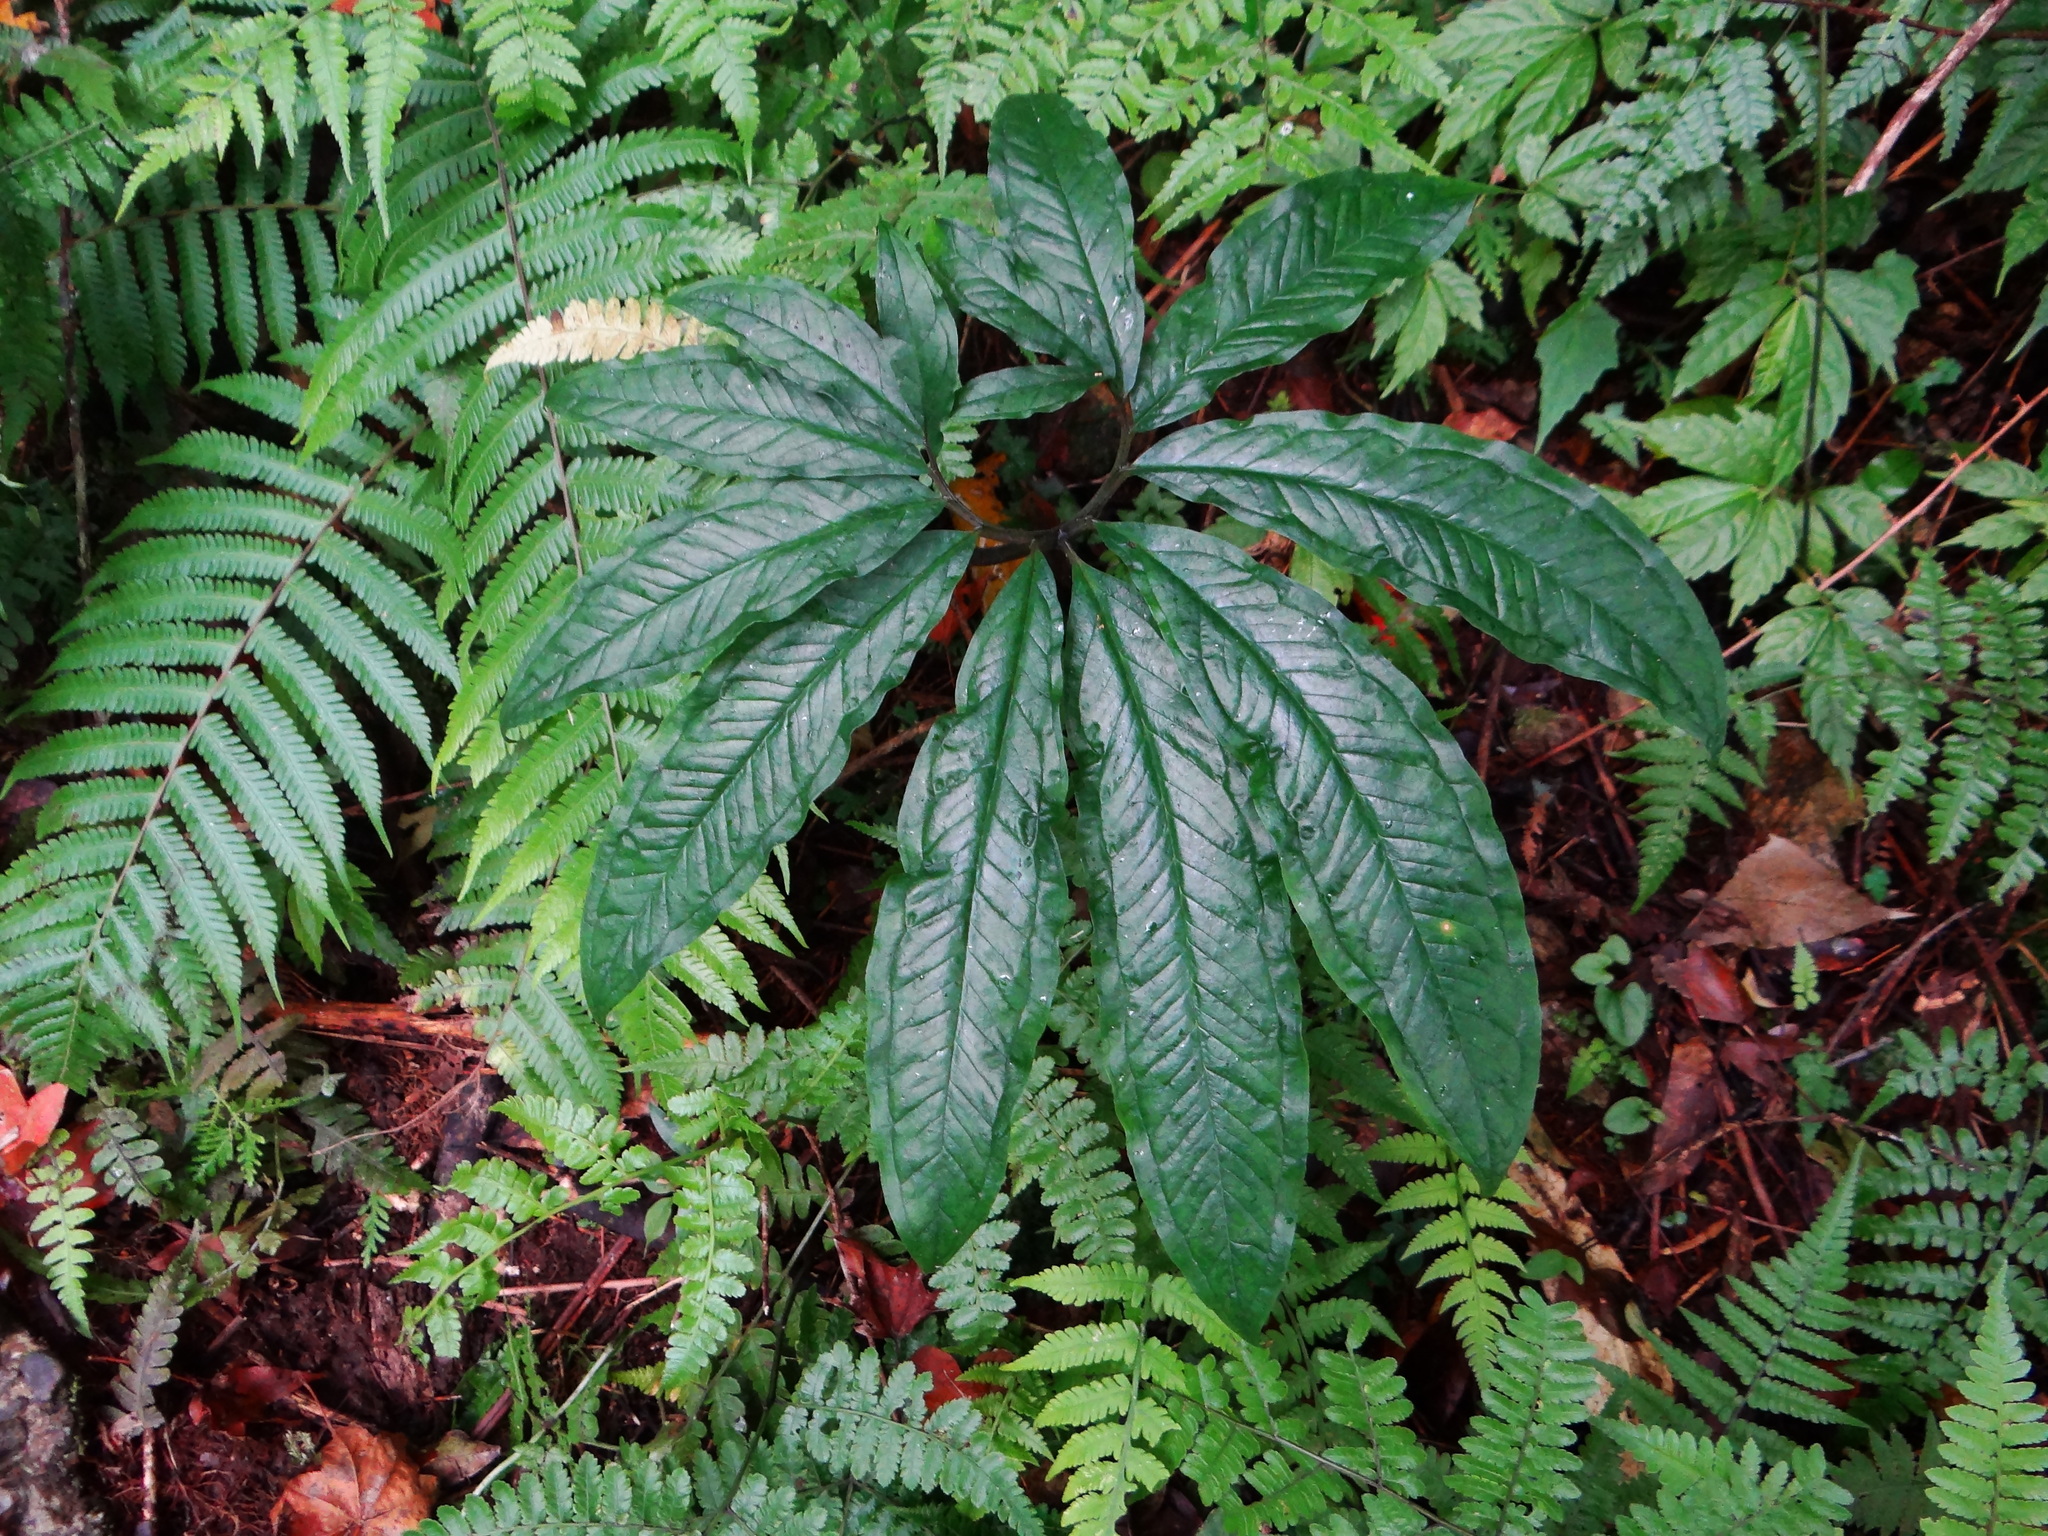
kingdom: Plantae
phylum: Tracheophyta
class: Liliopsida
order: Alismatales
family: Araceae
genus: Arisaema
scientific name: Arisaema ilanense
